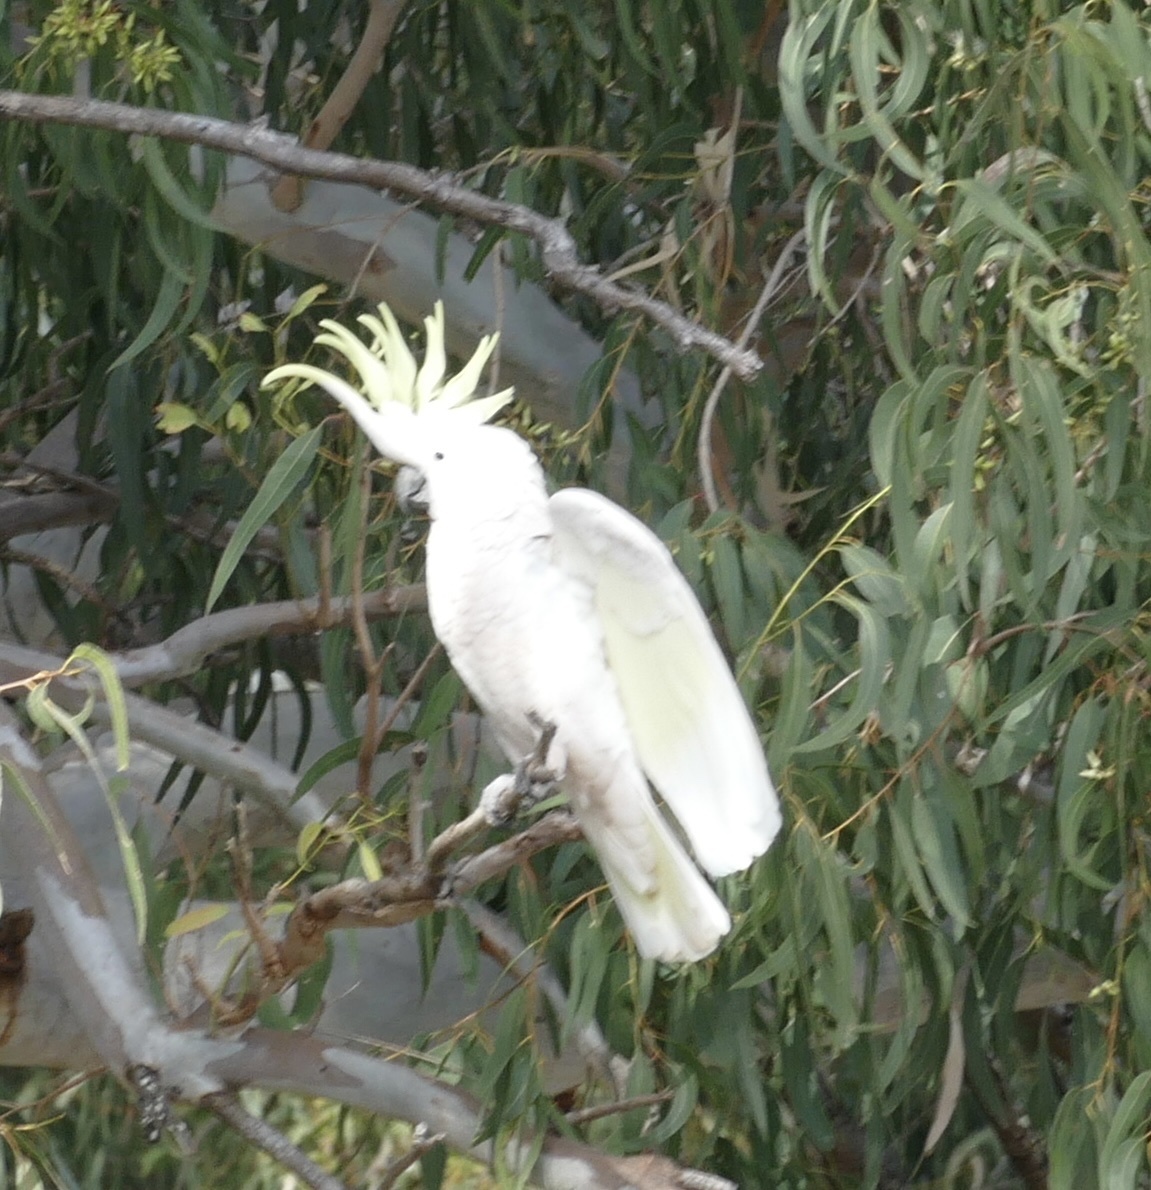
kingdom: Animalia
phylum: Chordata
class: Aves
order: Psittaciformes
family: Psittacidae
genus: Cacatua
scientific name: Cacatua galerita
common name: Sulphur-crested cockatoo
